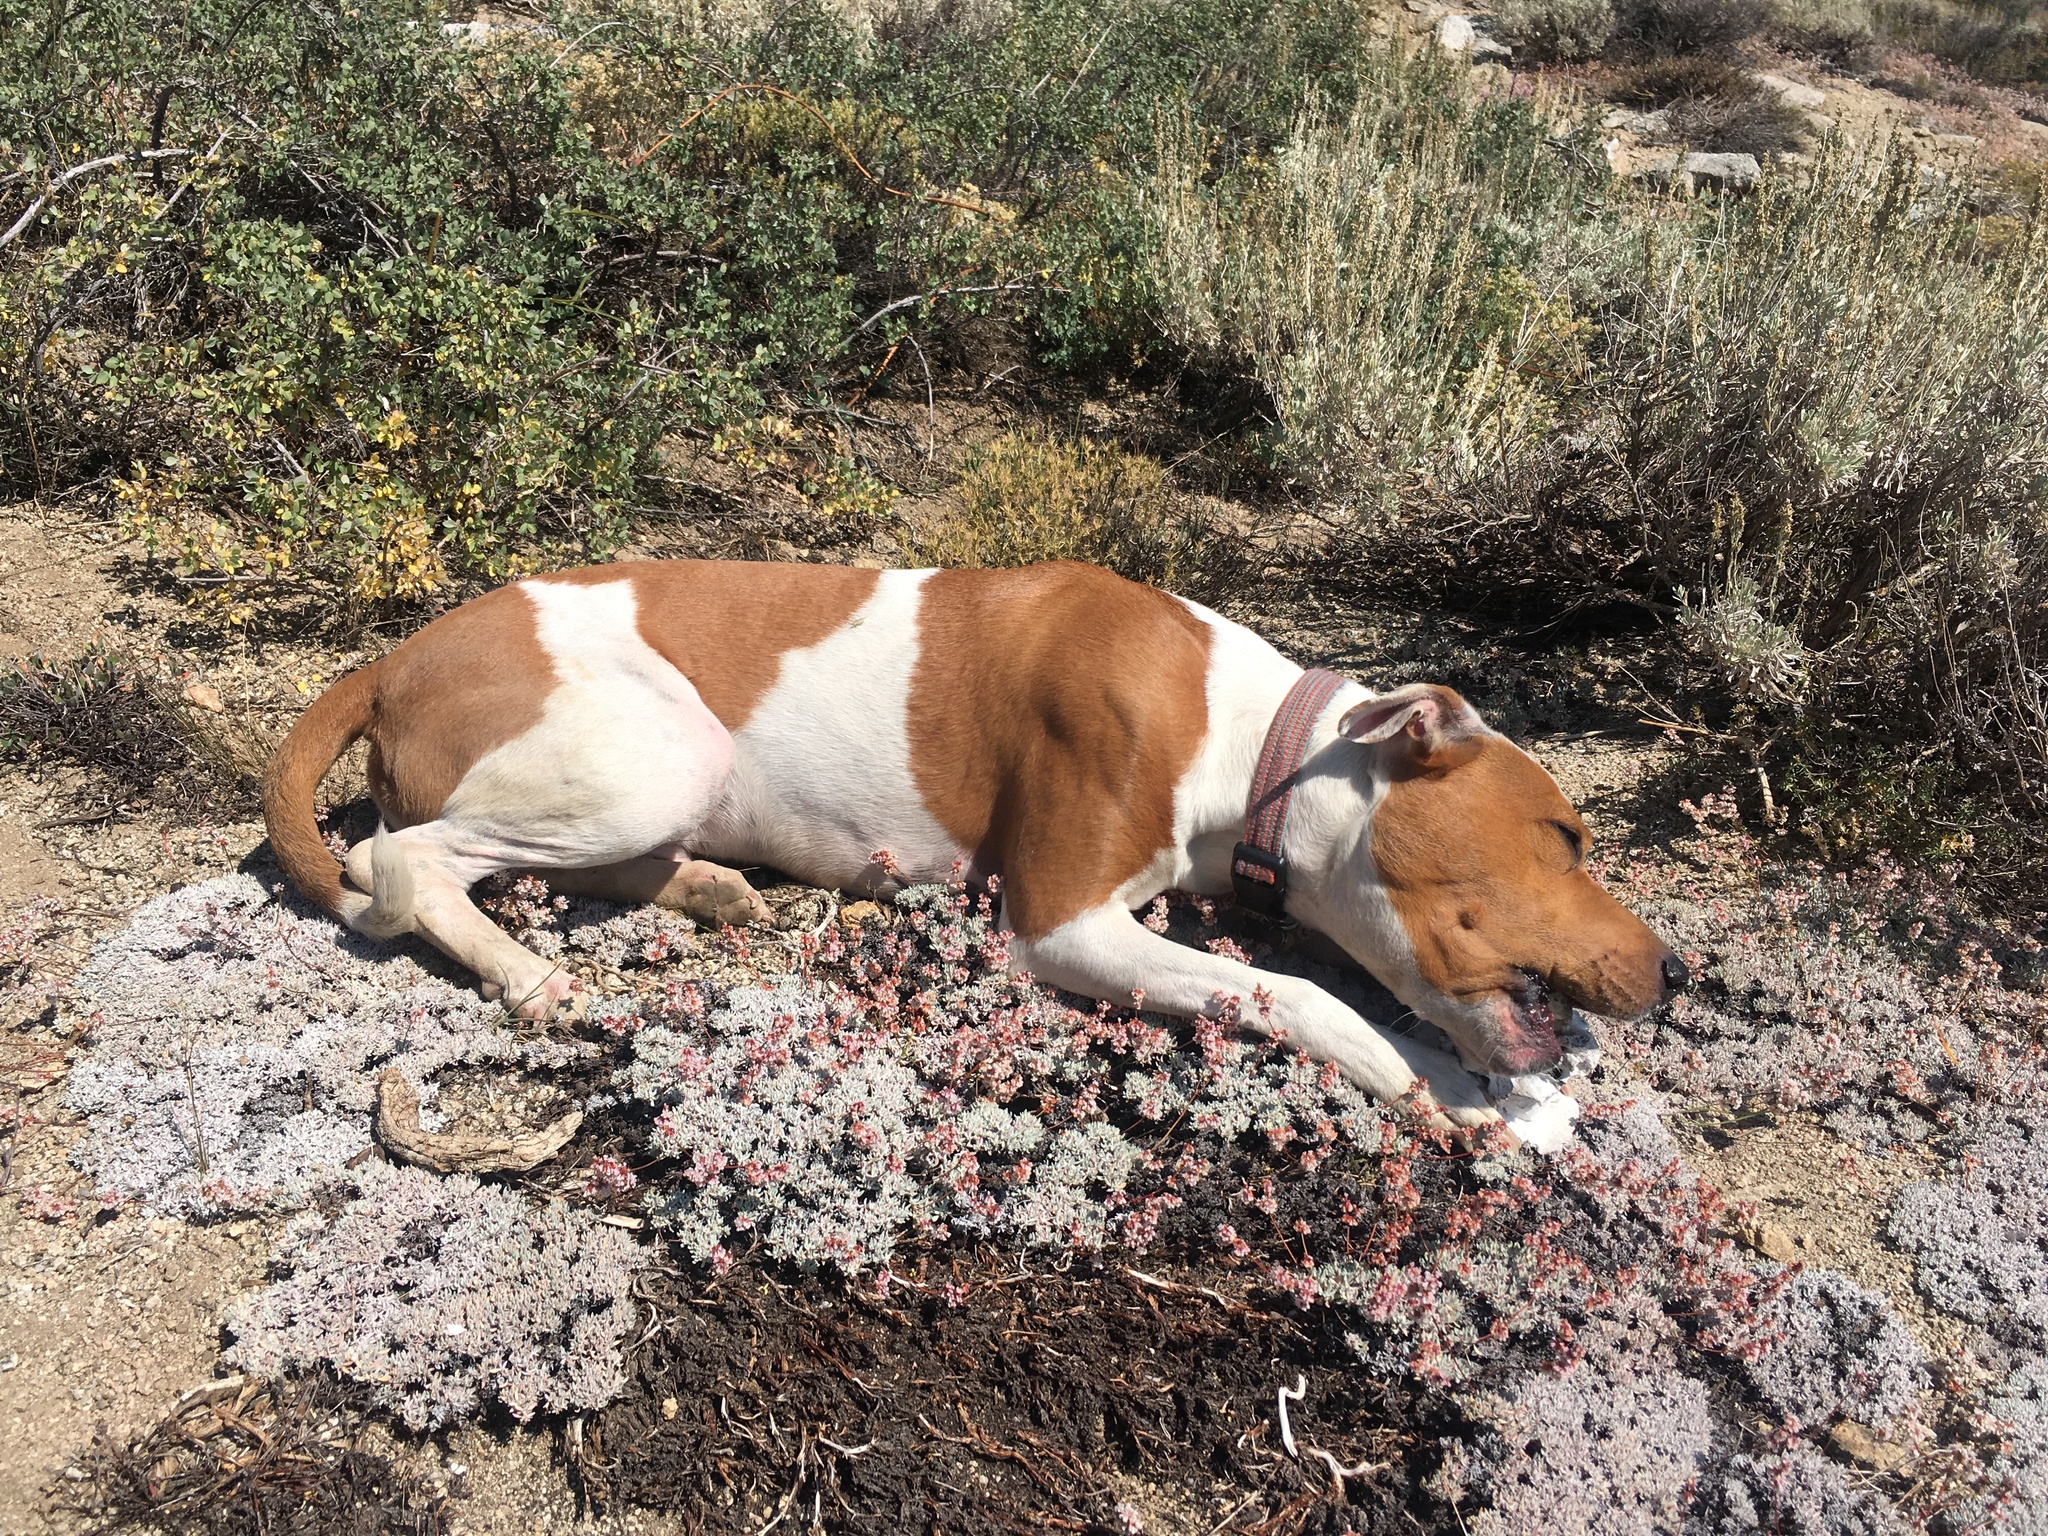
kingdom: Plantae
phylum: Tracheophyta
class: Magnoliopsida
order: Caryophyllales
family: Polygonaceae
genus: Eriogonum
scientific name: Eriogonum wrightii
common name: Bastard-sage
